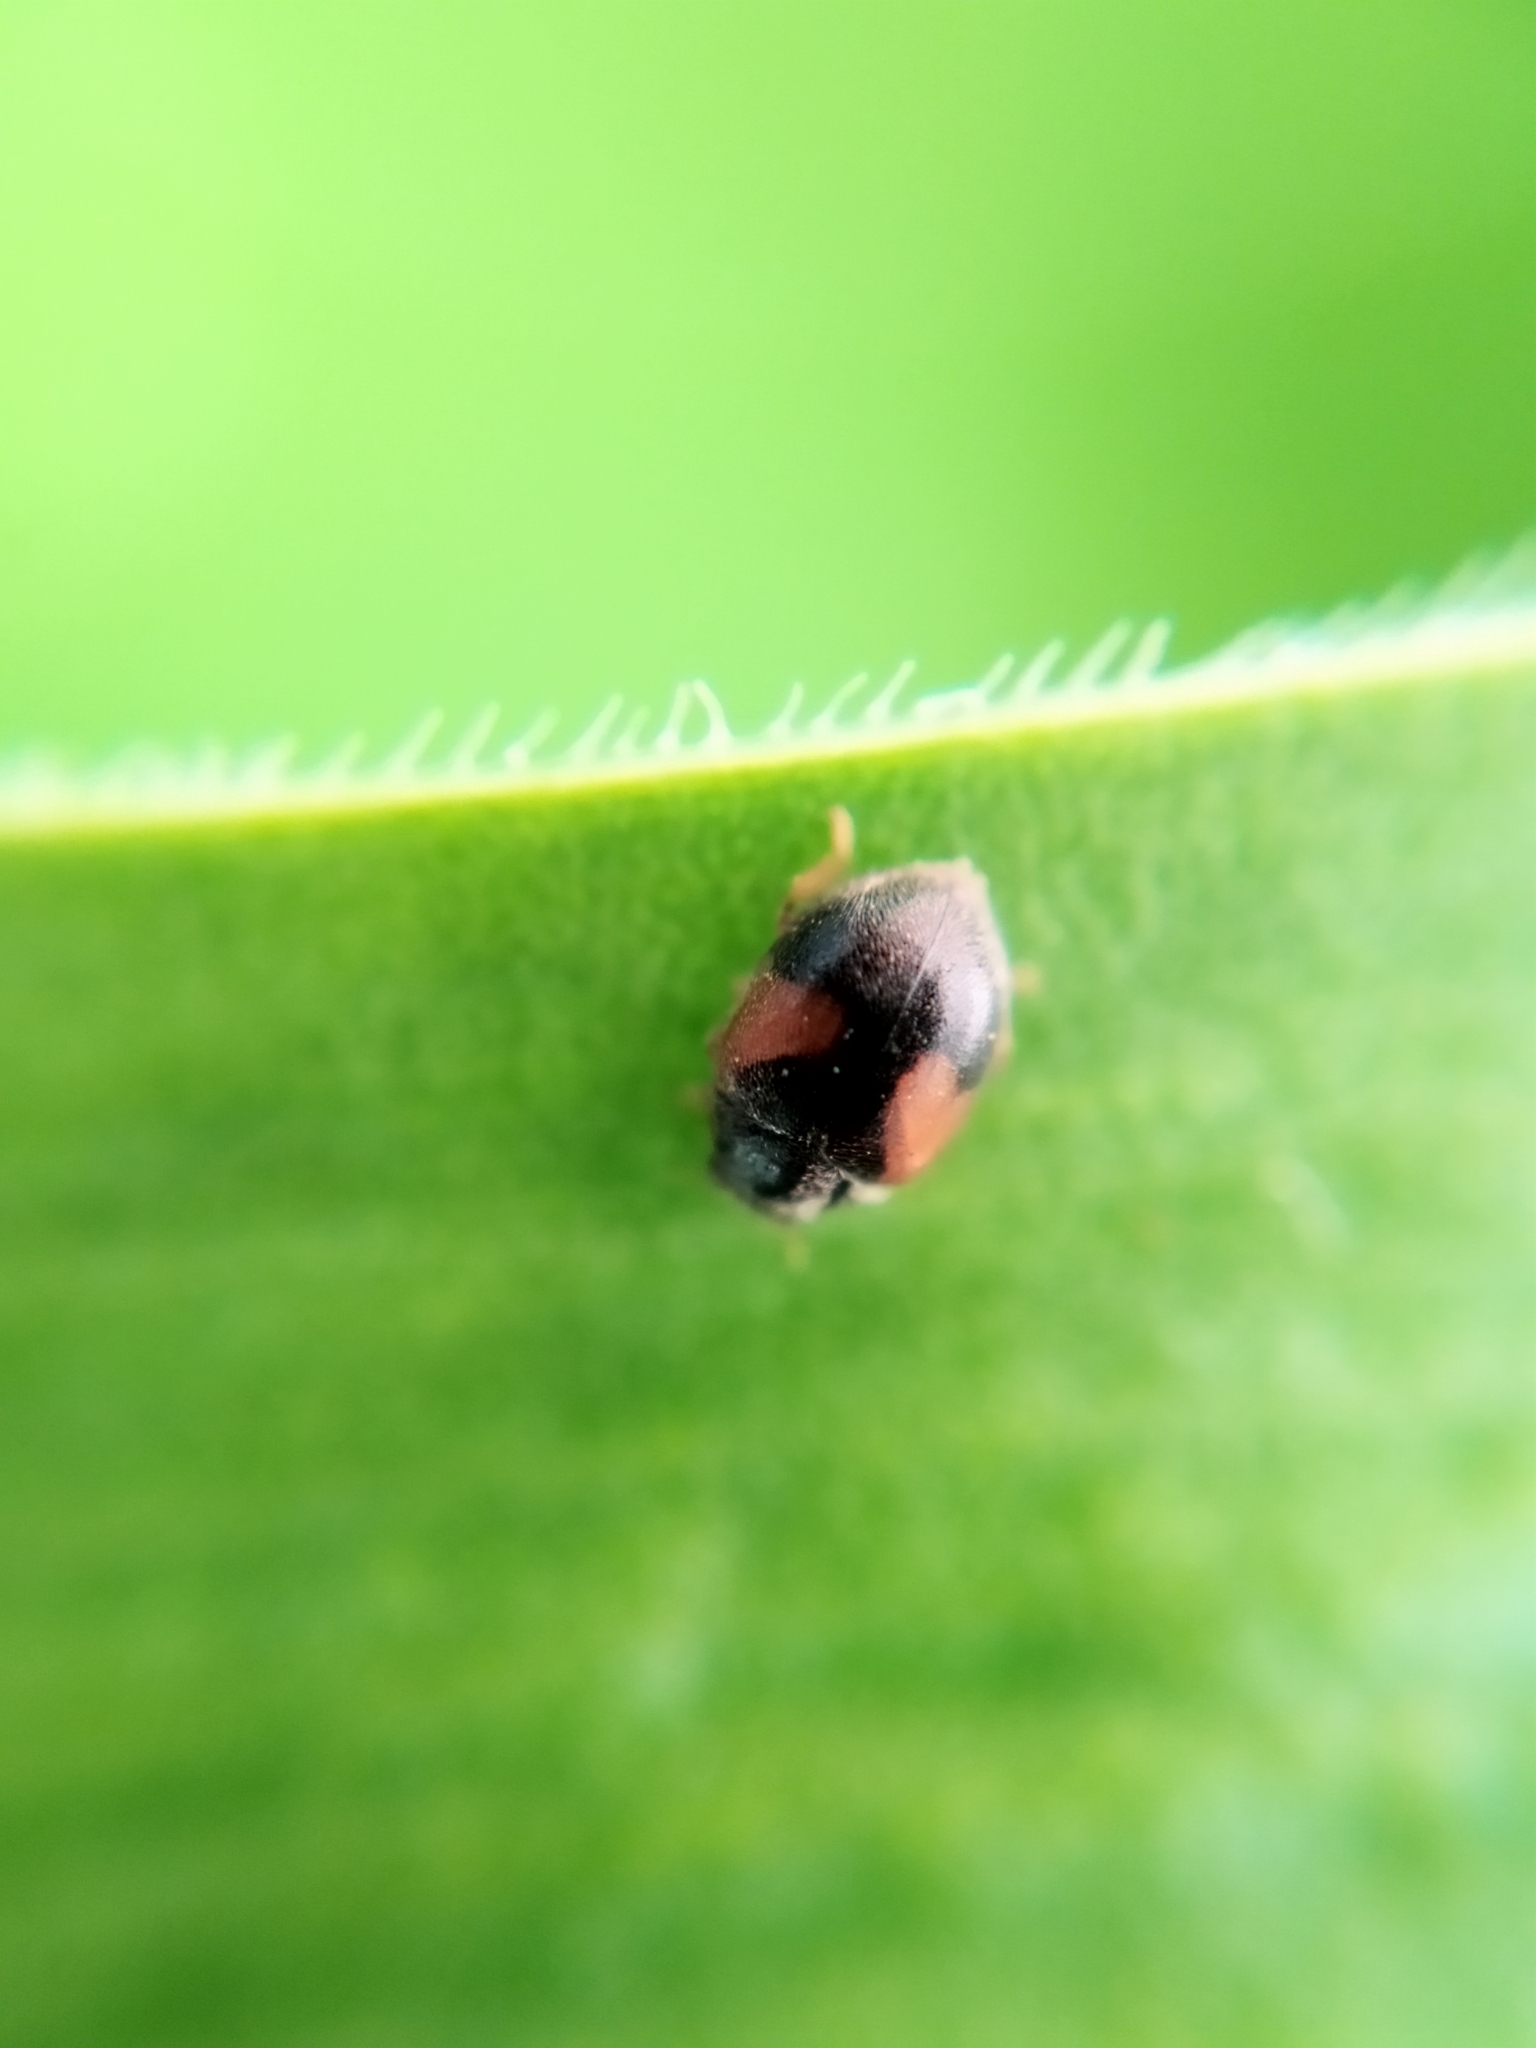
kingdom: Animalia
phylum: Arthropoda
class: Insecta
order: Coleoptera
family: Coccinellidae
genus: Scymnus
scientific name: Scymnus interruptus
